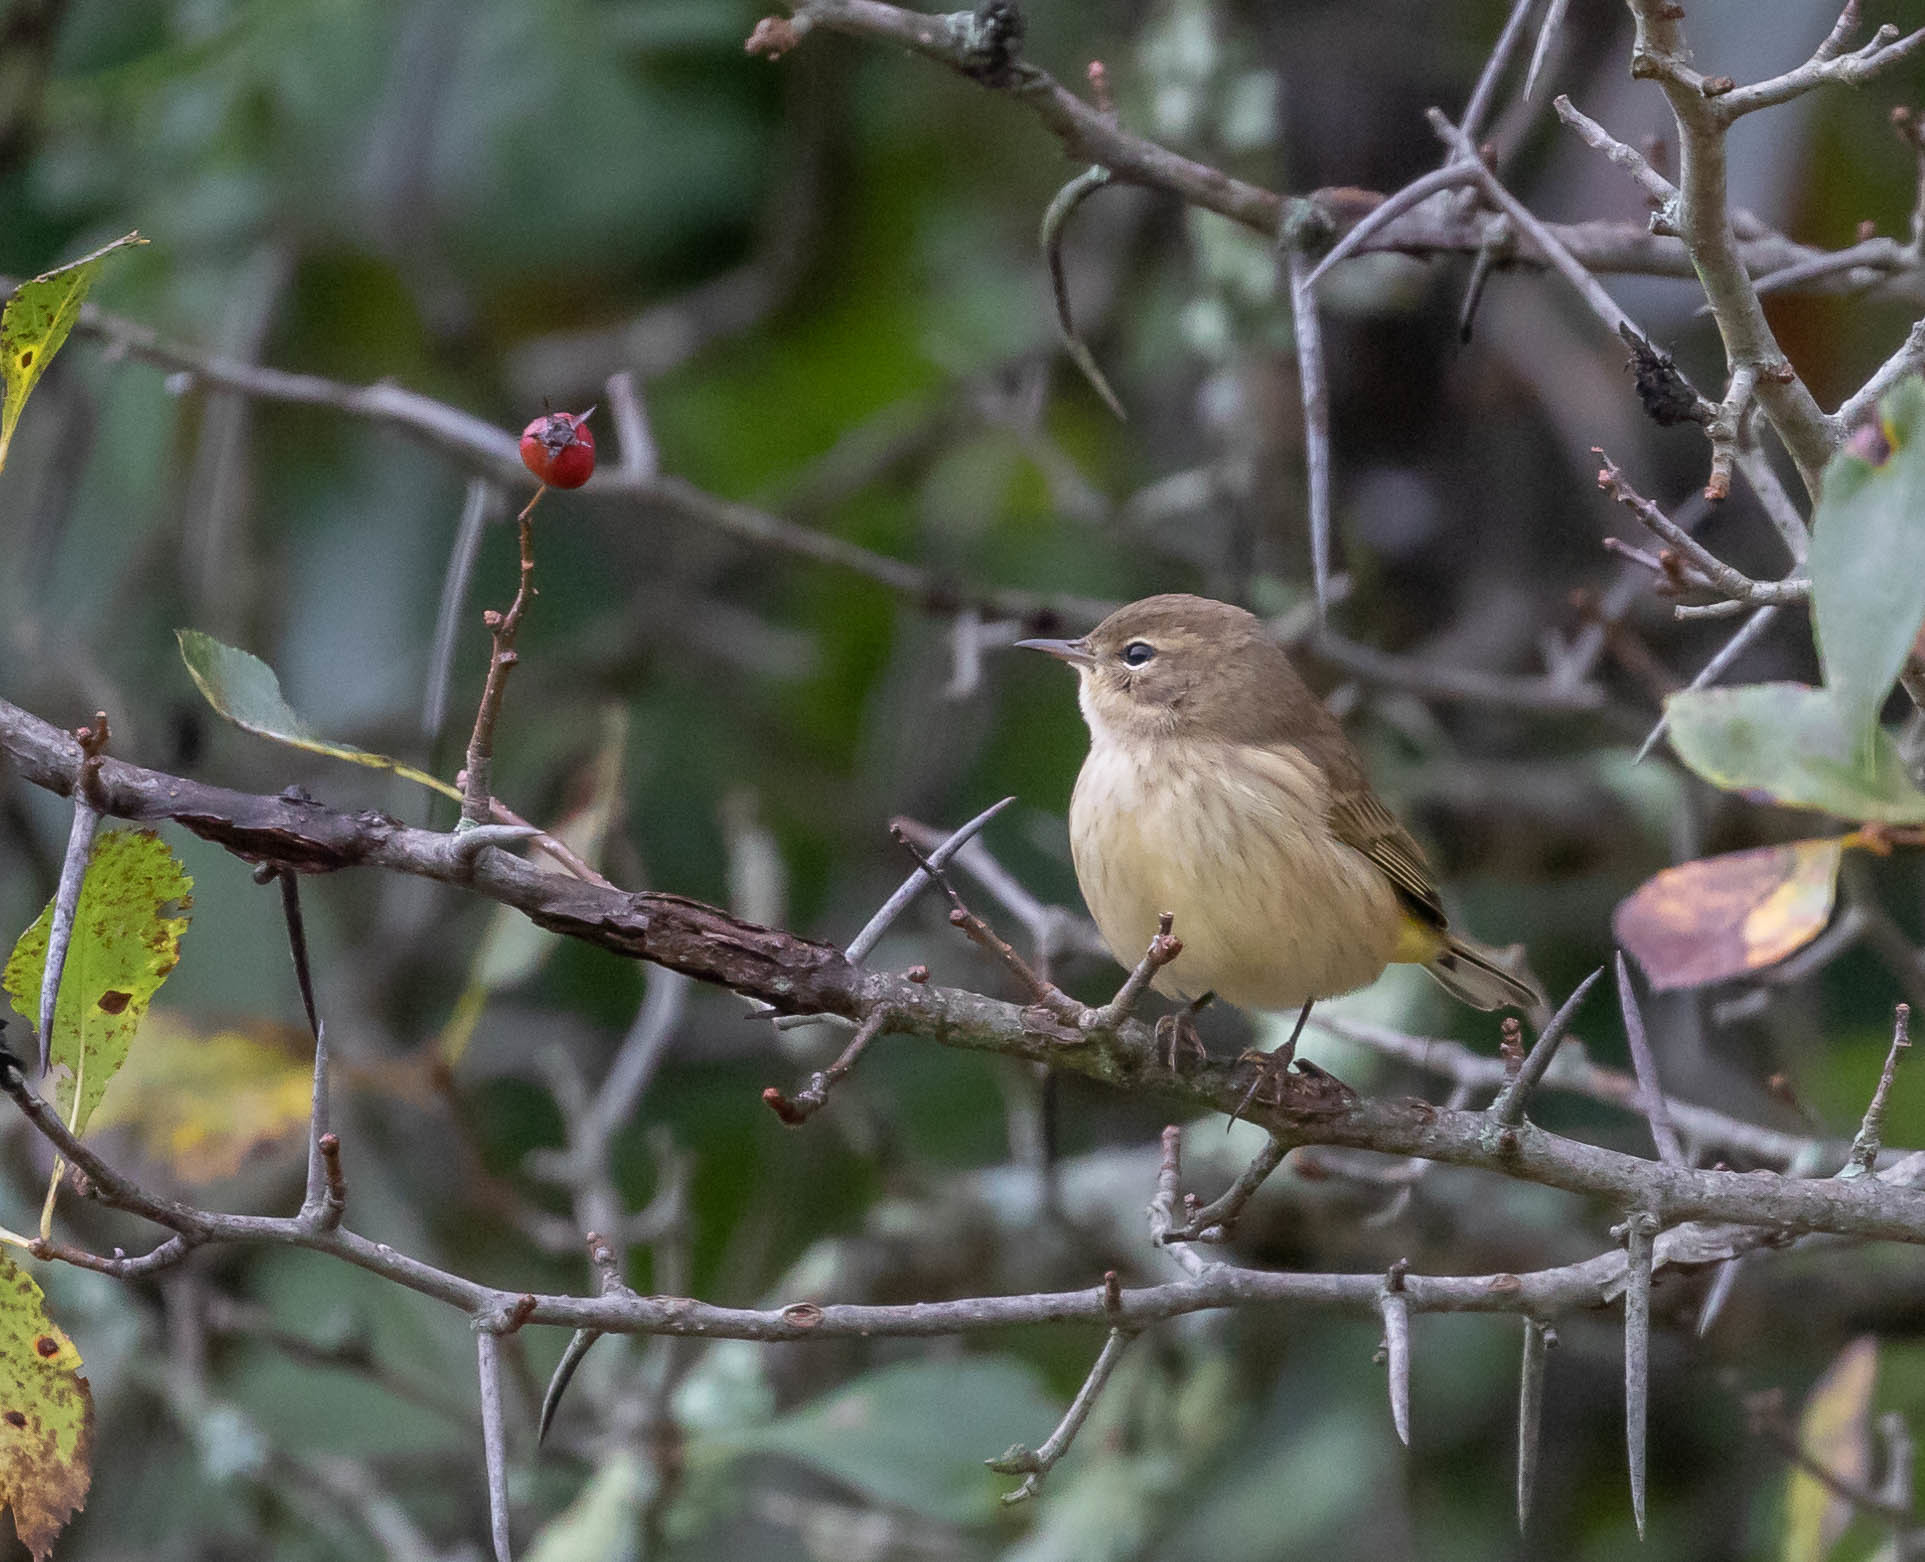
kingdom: Animalia
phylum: Chordata
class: Aves
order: Passeriformes
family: Parulidae
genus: Setophaga
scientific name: Setophaga palmarum
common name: Palm warbler
